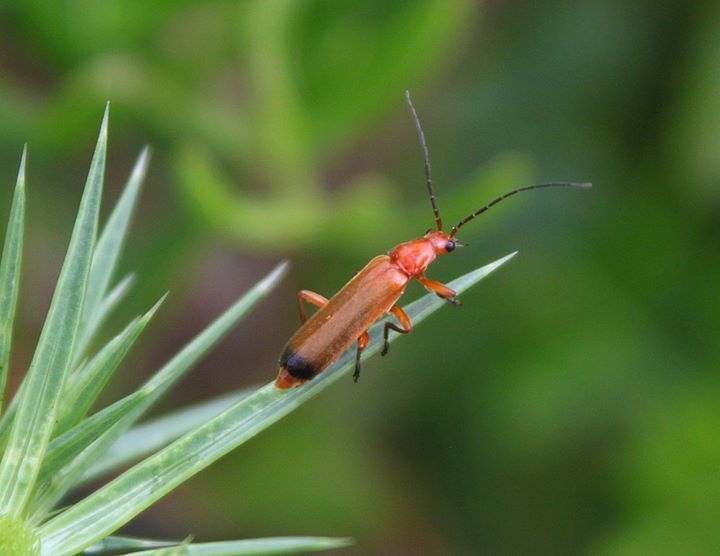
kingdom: Animalia
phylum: Arthropoda
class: Insecta
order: Coleoptera
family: Cantharidae
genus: Rhagonycha
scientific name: Rhagonycha fulva
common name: Common red soldier beetle
